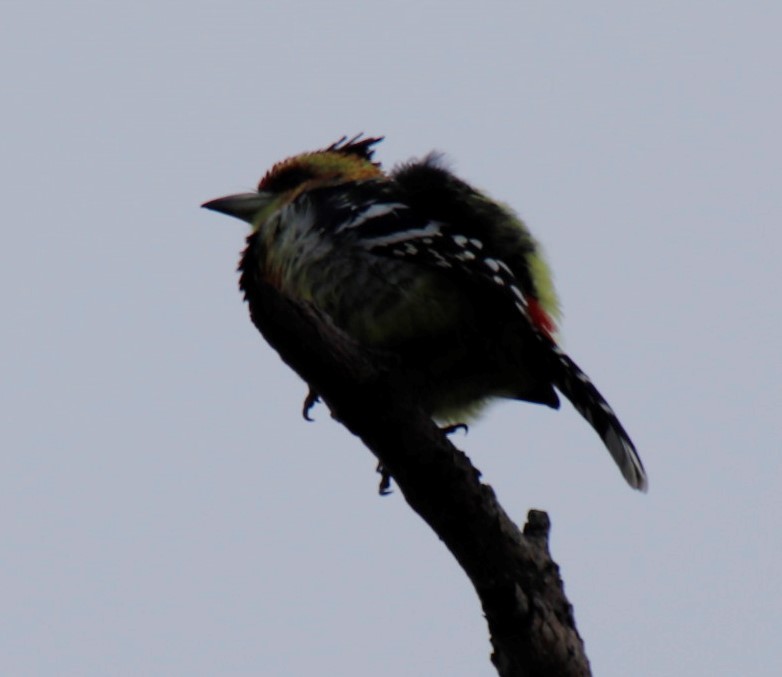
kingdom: Animalia
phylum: Chordata
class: Aves
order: Piciformes
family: Lybiidae
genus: Trachyphonus
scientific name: Trachyphonus vaillantii
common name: Crested barbet
